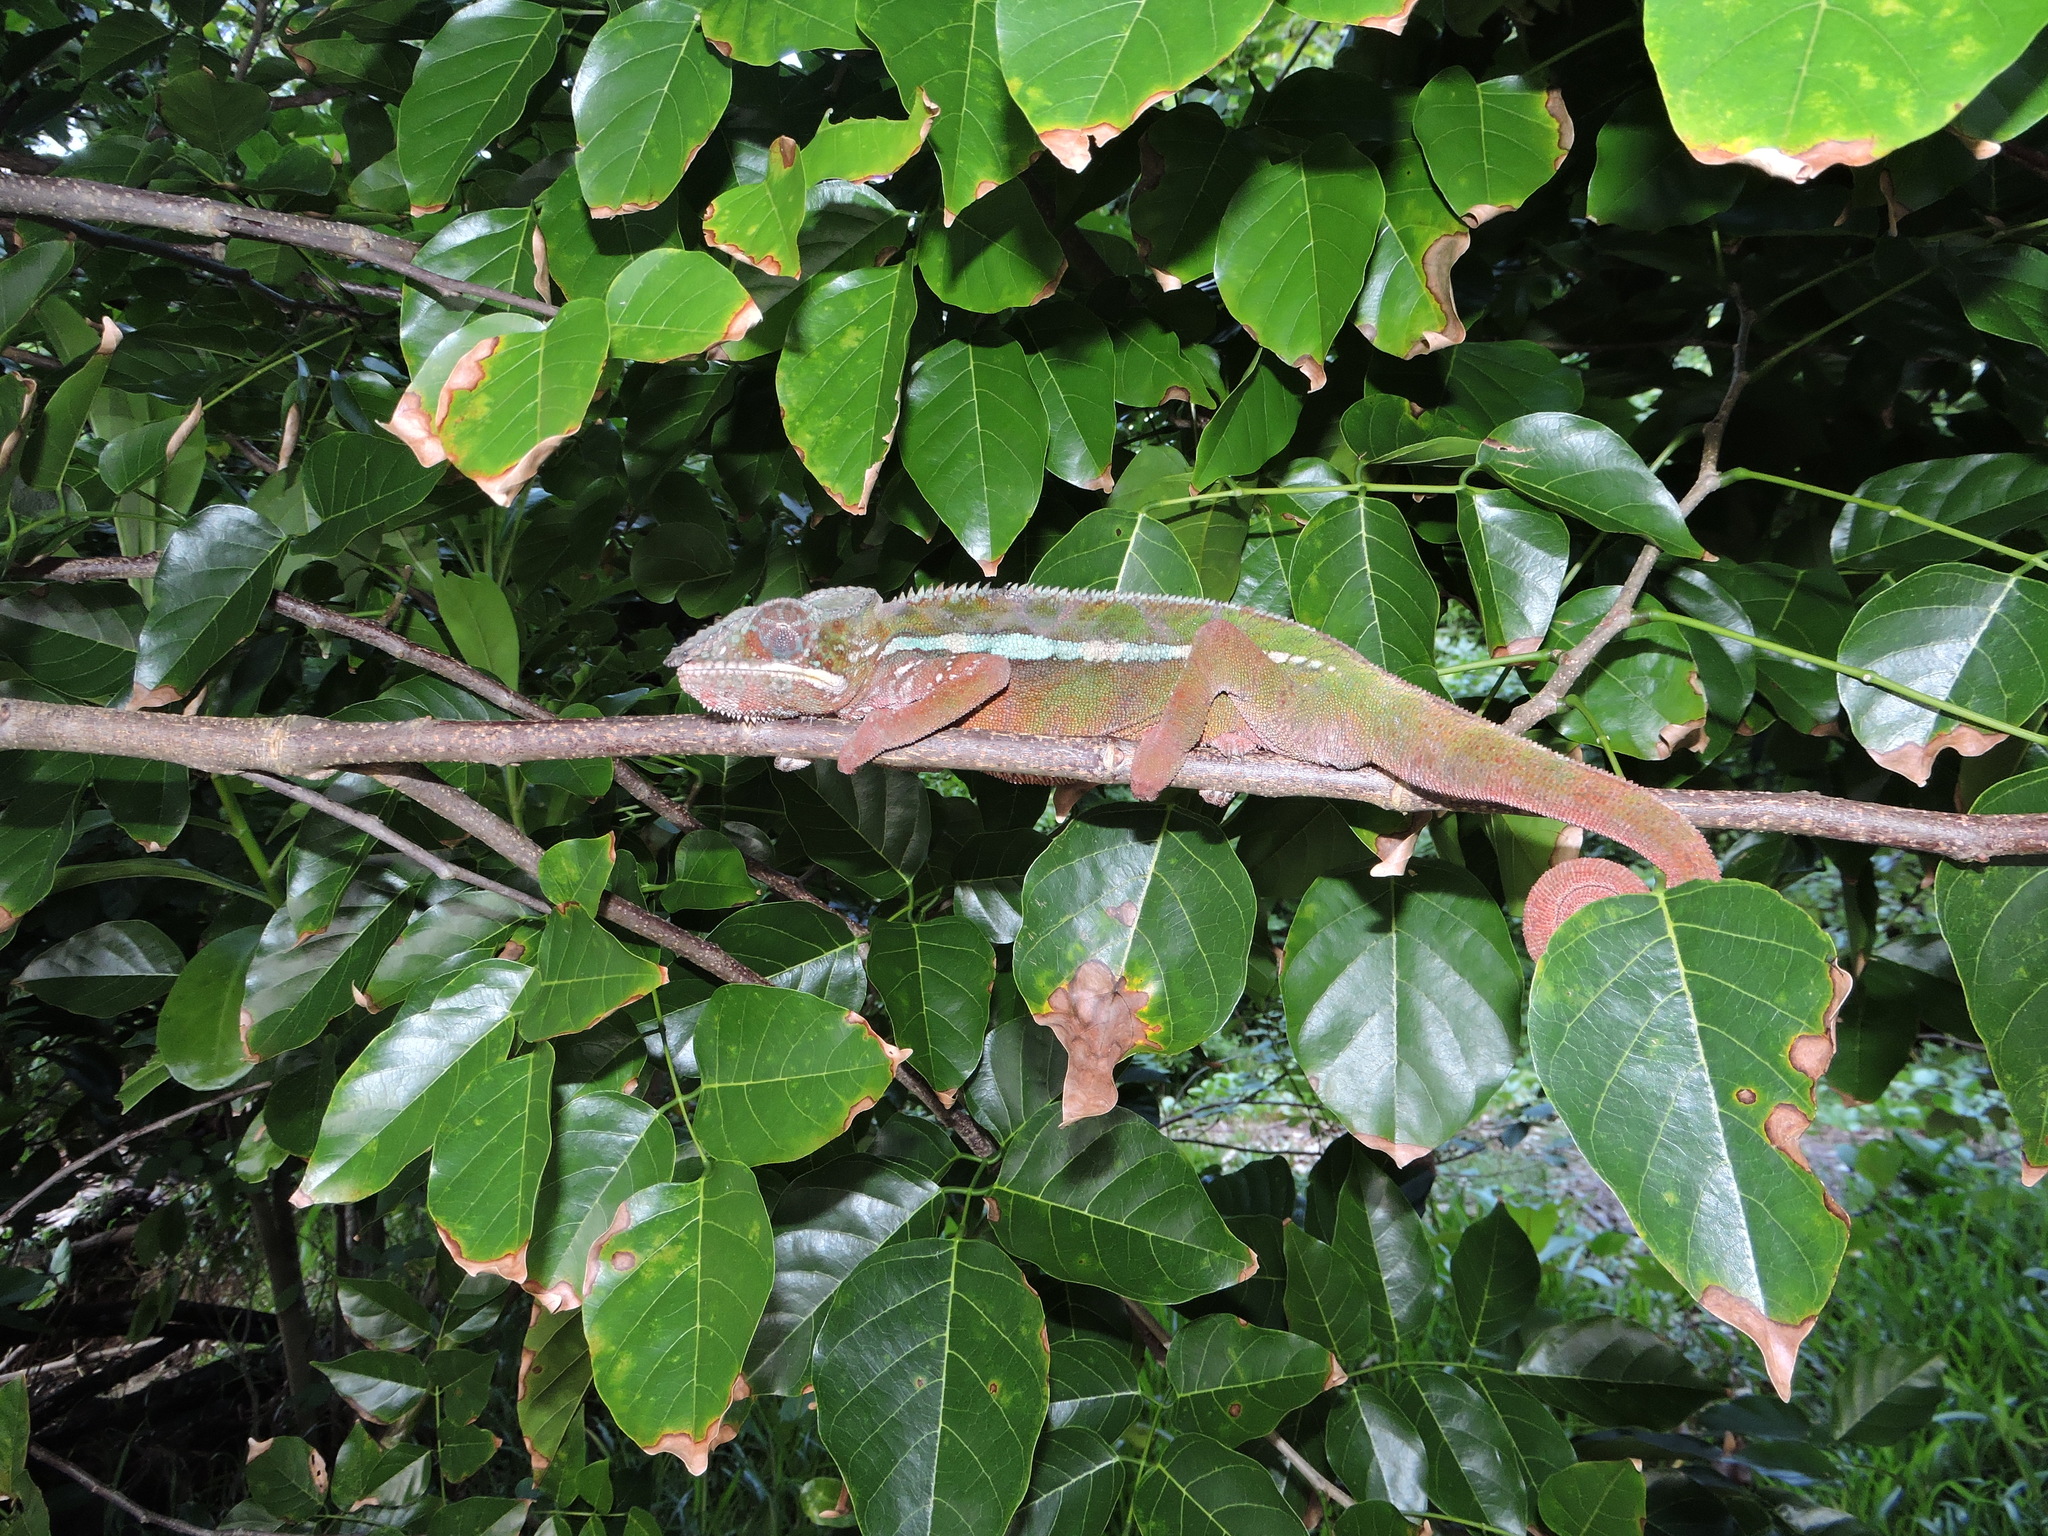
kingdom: Animalia
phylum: Chordata
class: Squamata
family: Chamaeleonidae
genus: Furcifer
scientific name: Furcifer pardalis
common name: Panther chameleon
